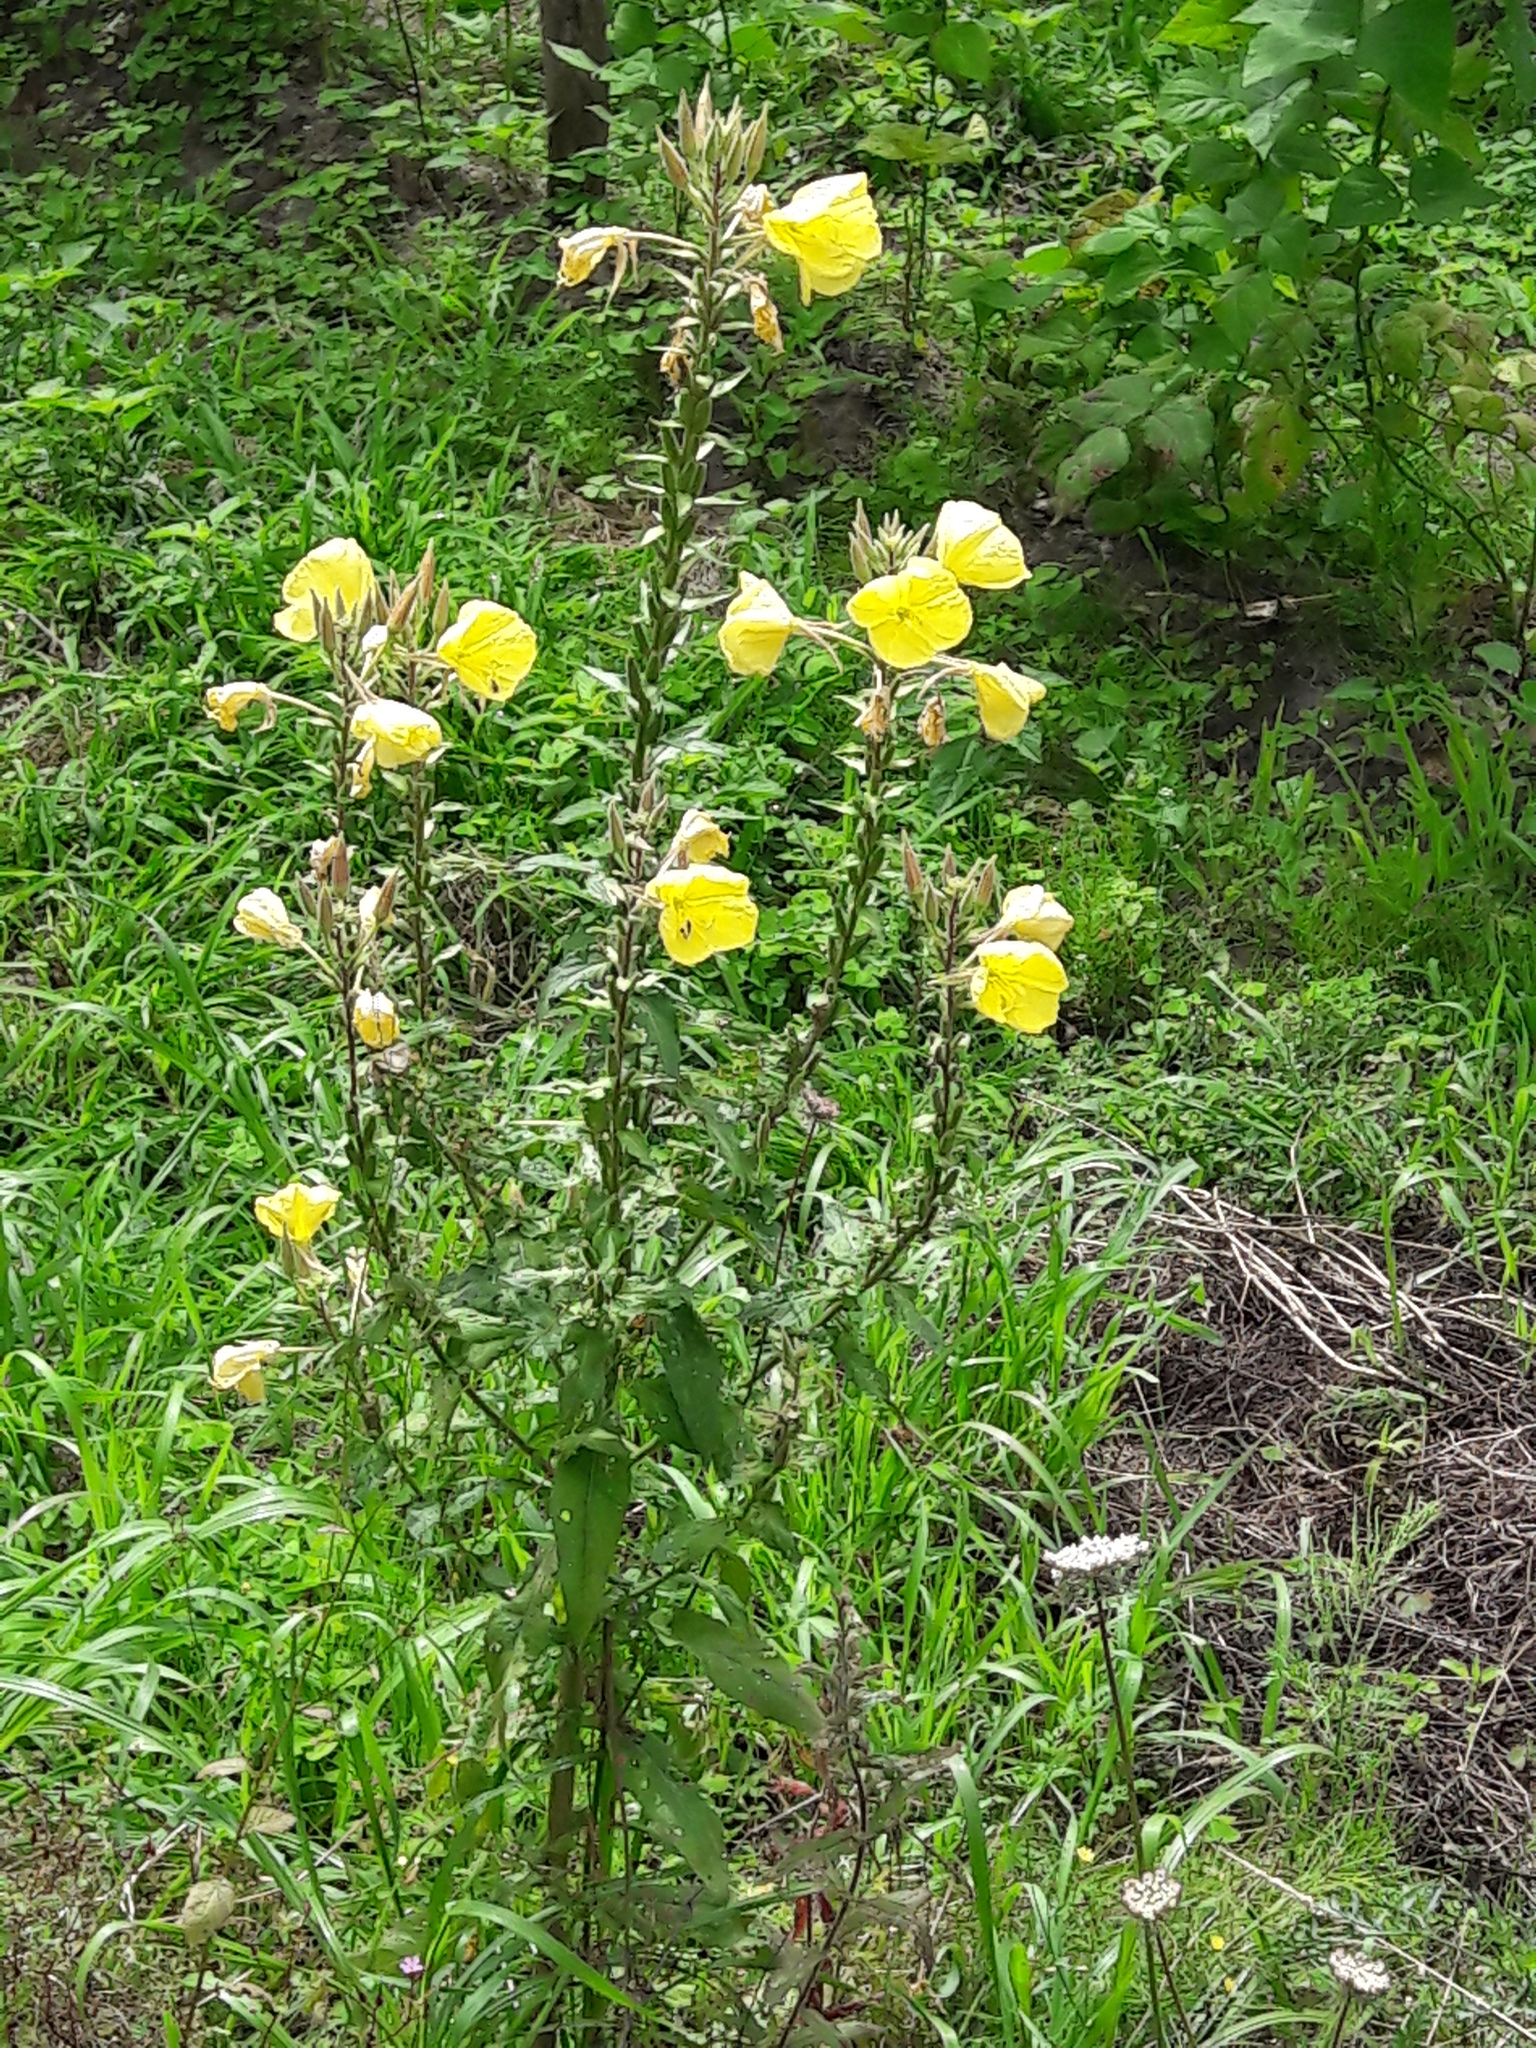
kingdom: Plantae
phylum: Tracheophyta
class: Magnoliopsida
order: Myrtales
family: Onagraceae
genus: Oenothera
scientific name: Oenothera glazioviana
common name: Large-flowered evening-primrose
